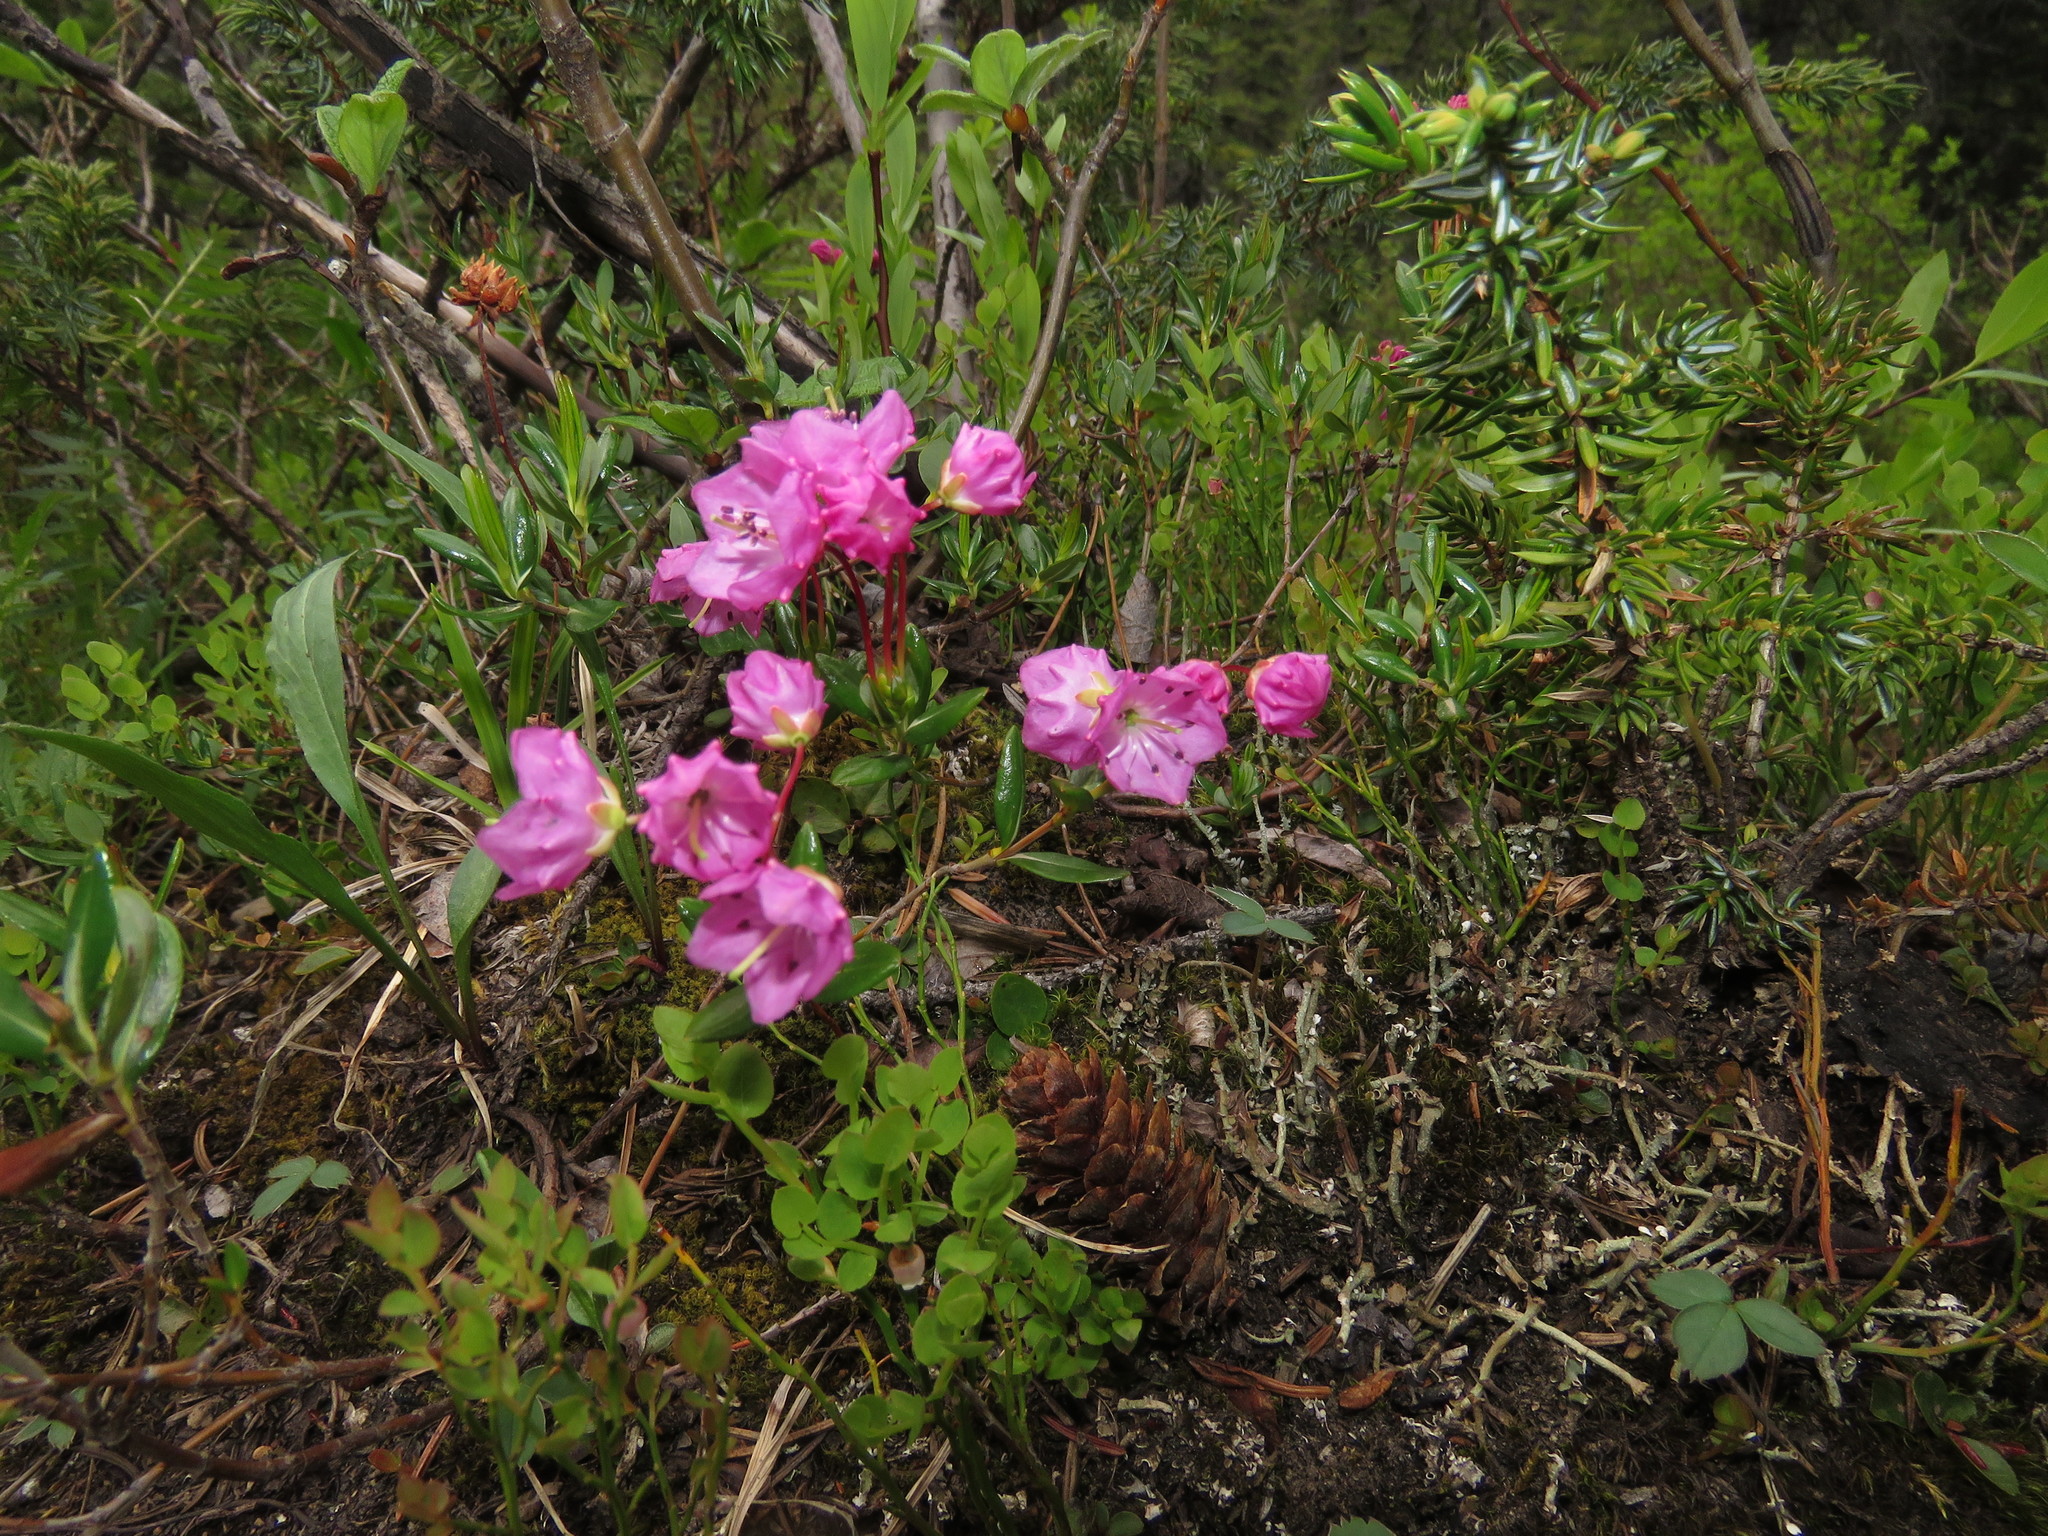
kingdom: Plantae
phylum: Tracheophyta
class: Magnoliopsida
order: Ericales
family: Ericaceae
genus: Kalmia
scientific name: Kalmia microphylla
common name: Alpine bog laurel
